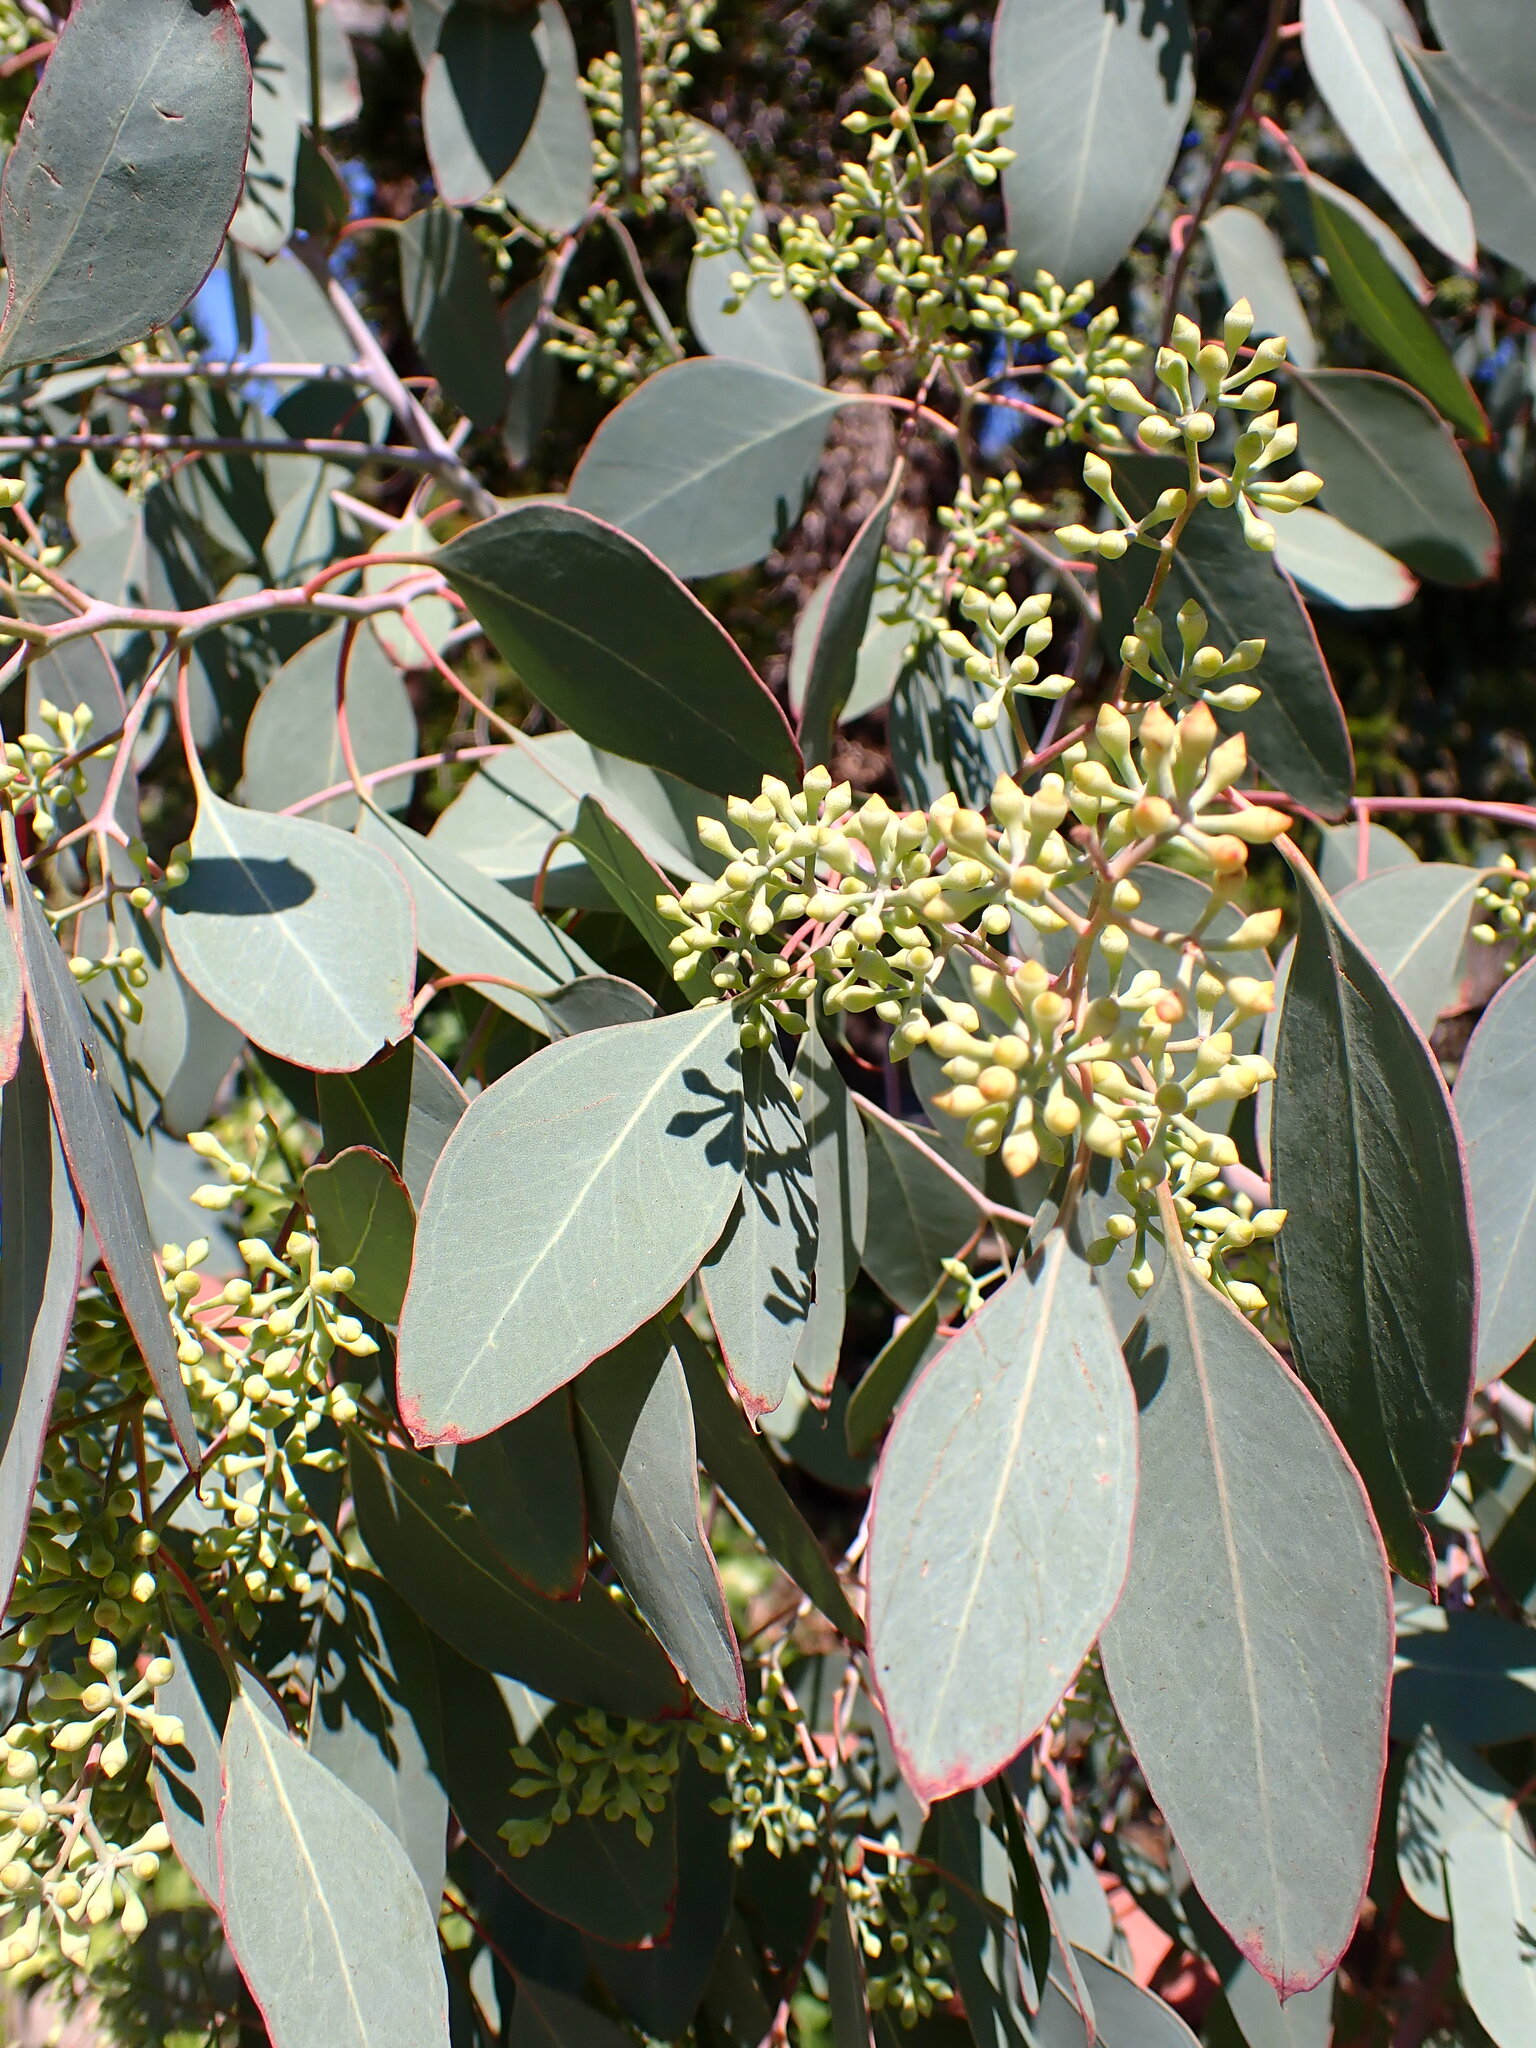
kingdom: Plantae
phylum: Tracheophyta
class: Magnoliopsida
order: Myrtales
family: Myrtaceae
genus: Eucalyptus
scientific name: Eucalyptus polyanthemos
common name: Red-box
